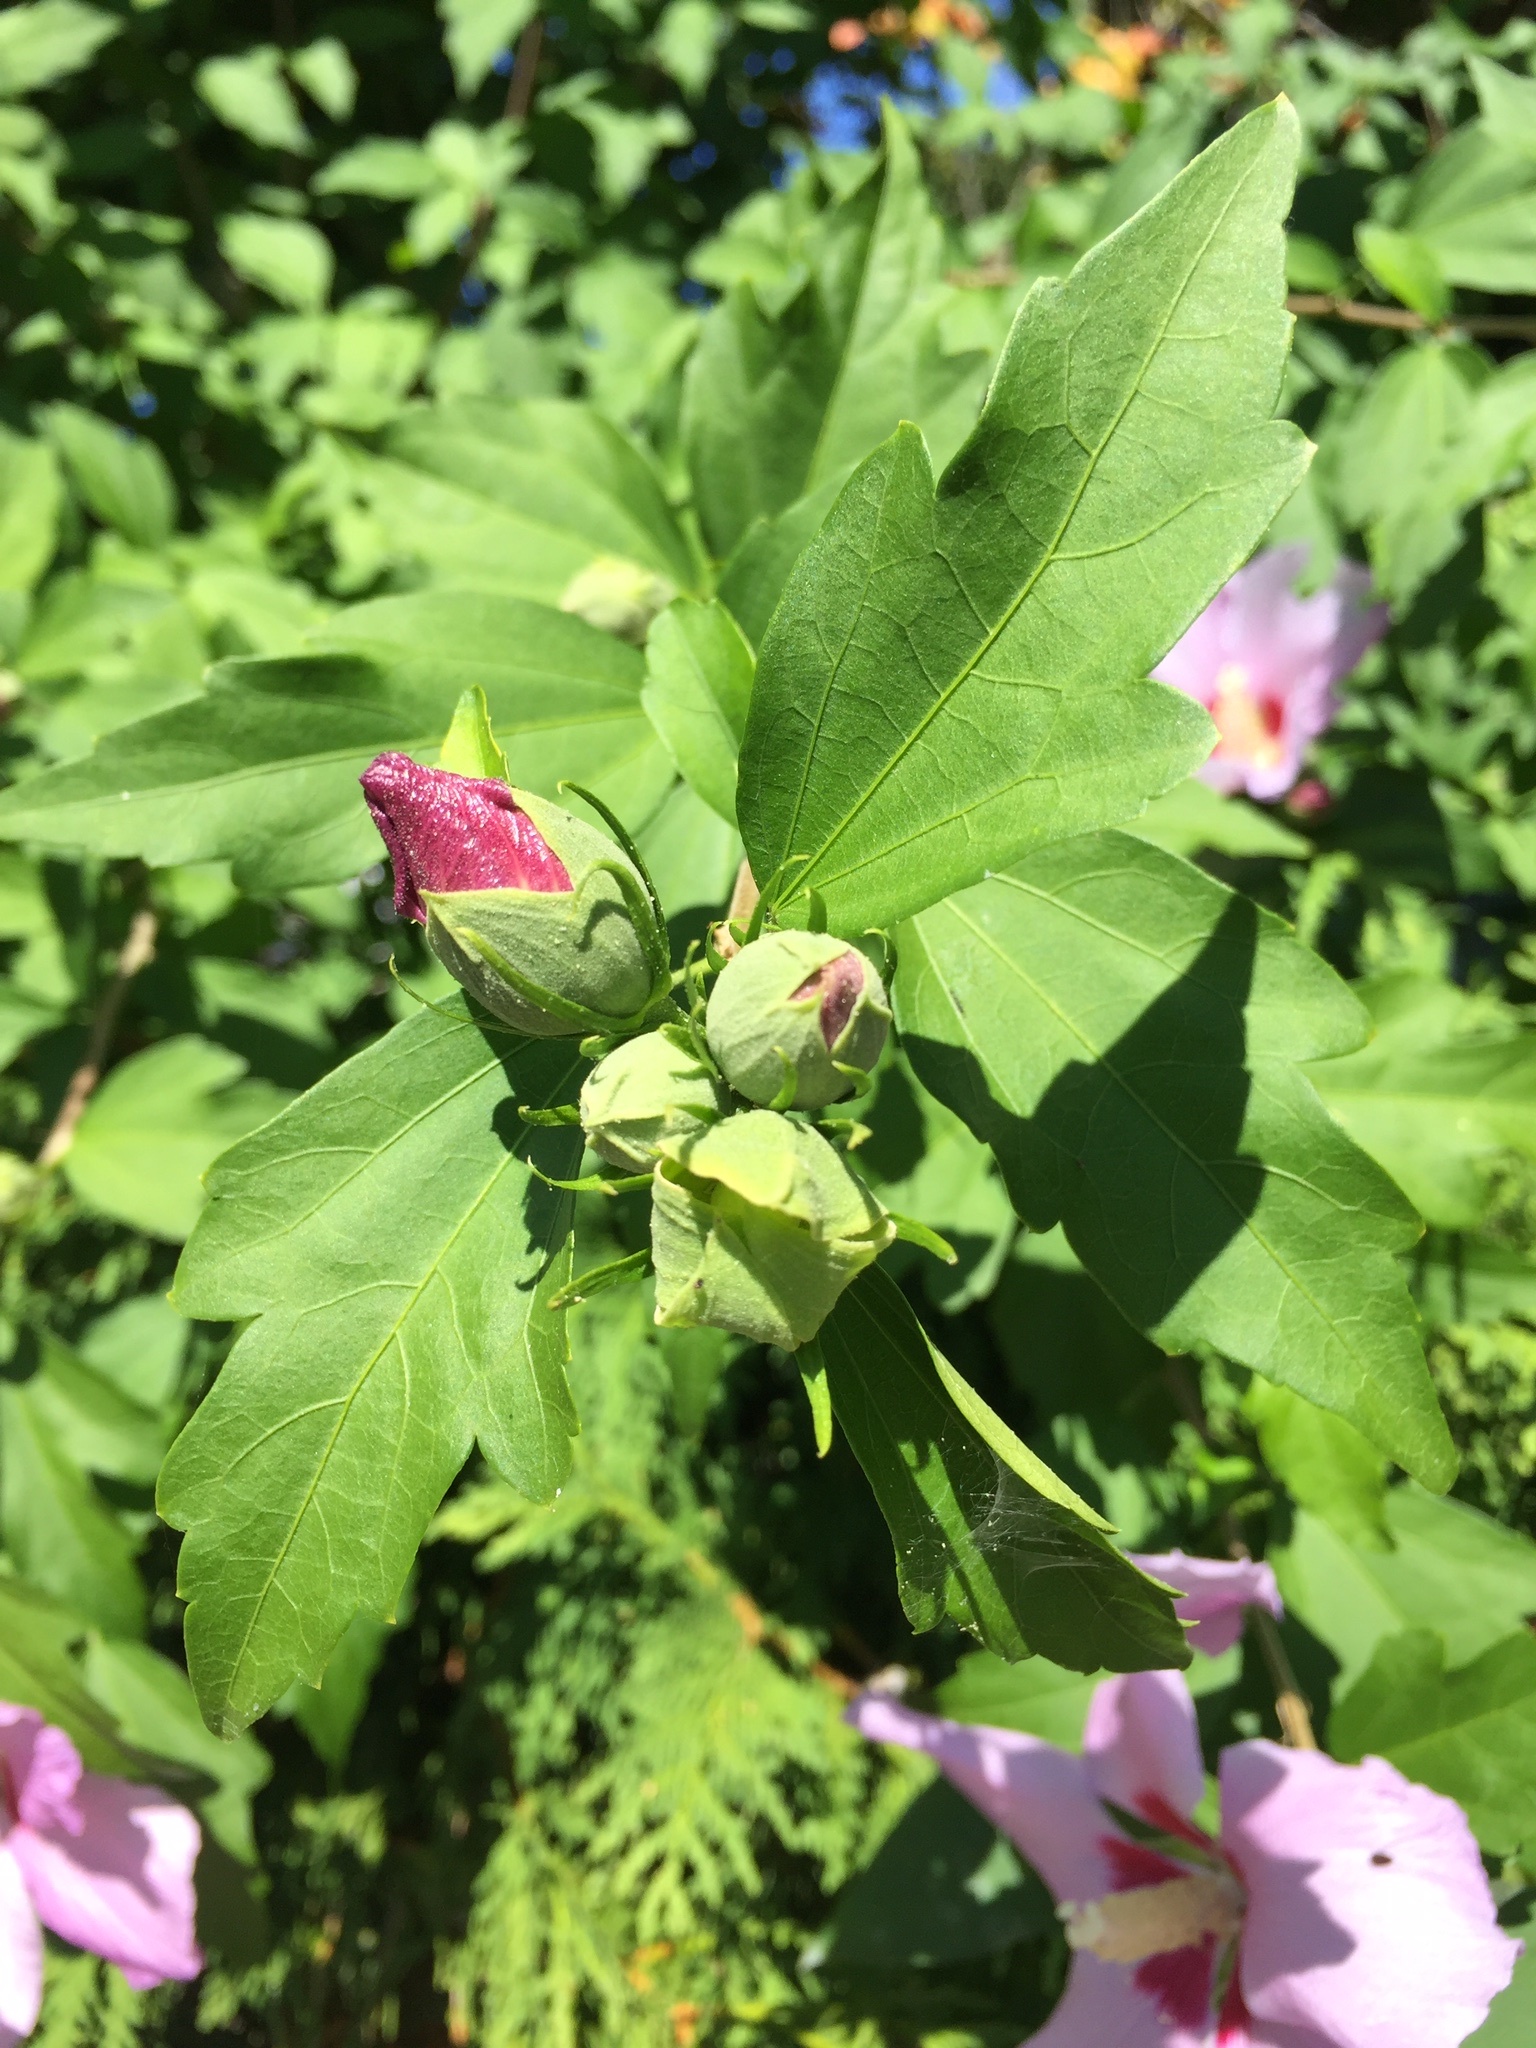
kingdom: Plantae
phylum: Tracheophyta
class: Magnoliopsida
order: Malvales
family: Malvaceae
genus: Hibiscus
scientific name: Hibiscus syriacus
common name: Syrian ketmia
